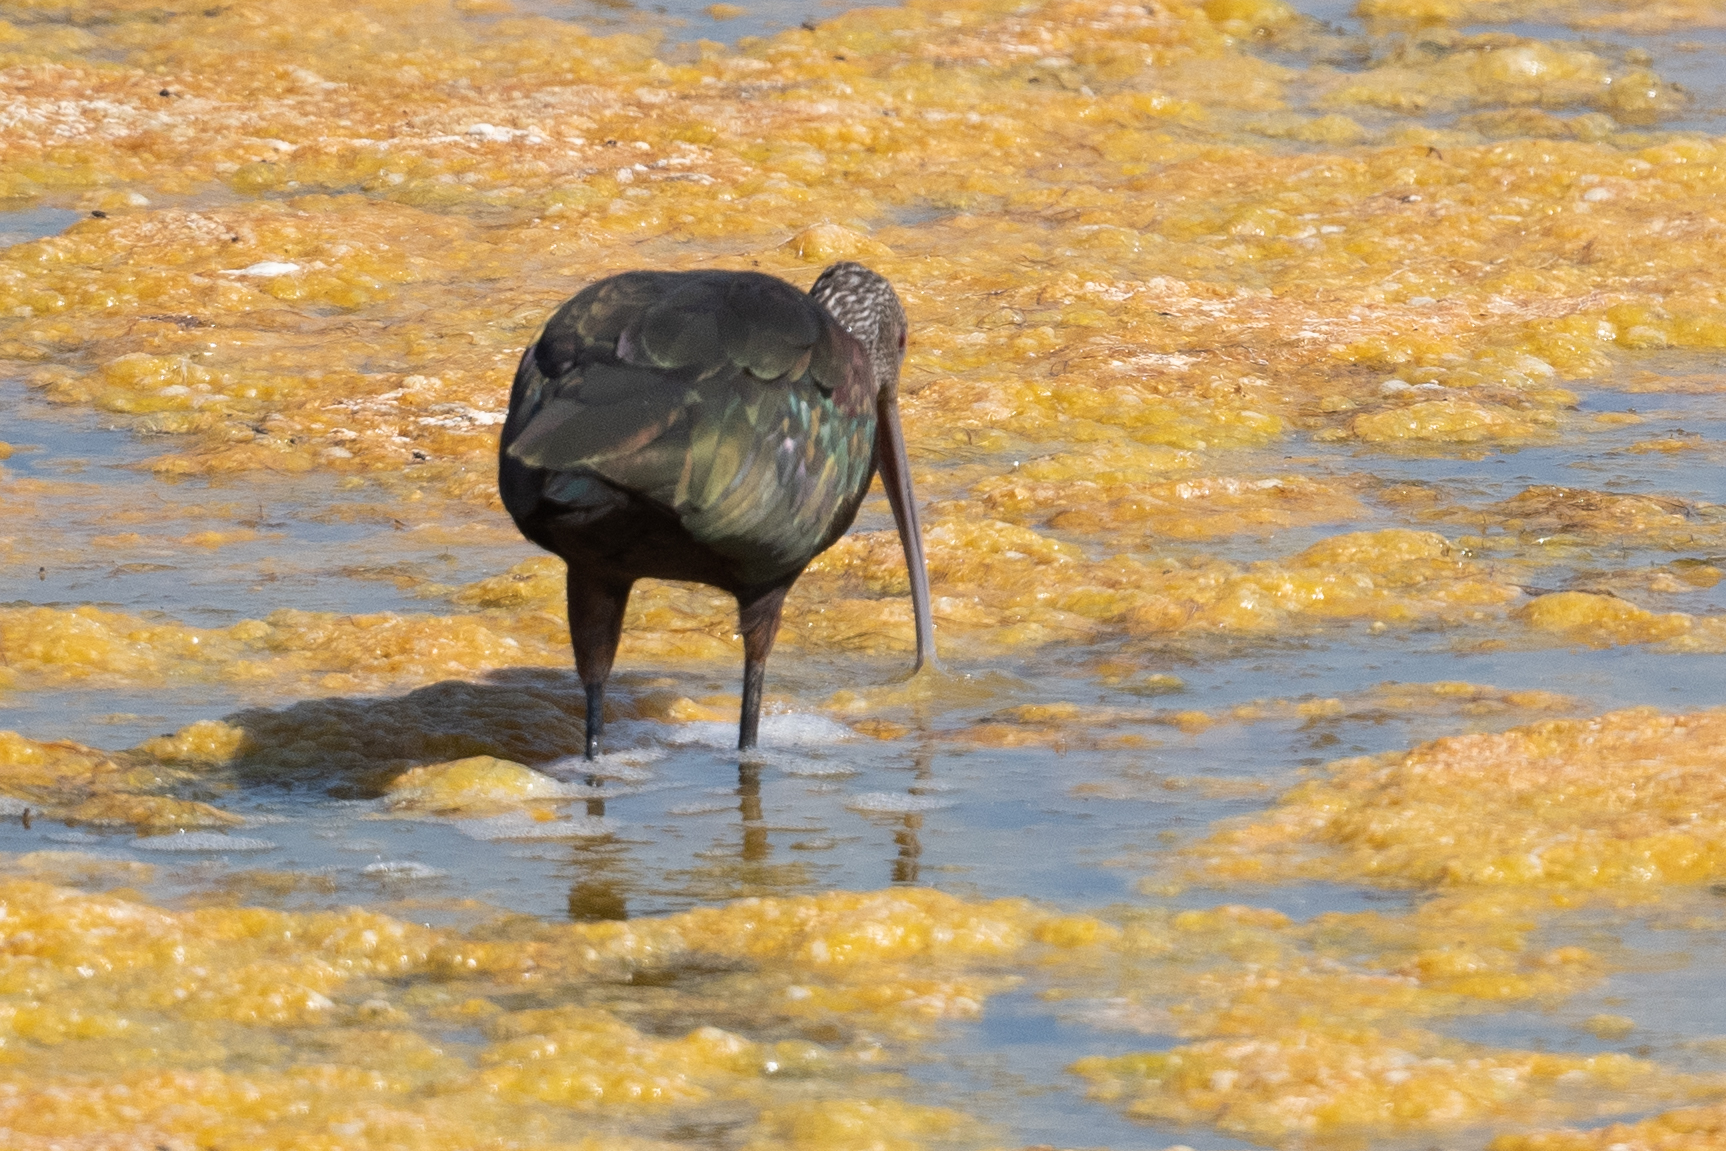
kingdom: Animalia
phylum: Chordata
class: Aves
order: Pelecaniformes
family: Threskiornithidae
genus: Plegadis
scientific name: Plegadis chihi
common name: White-faced ibis
